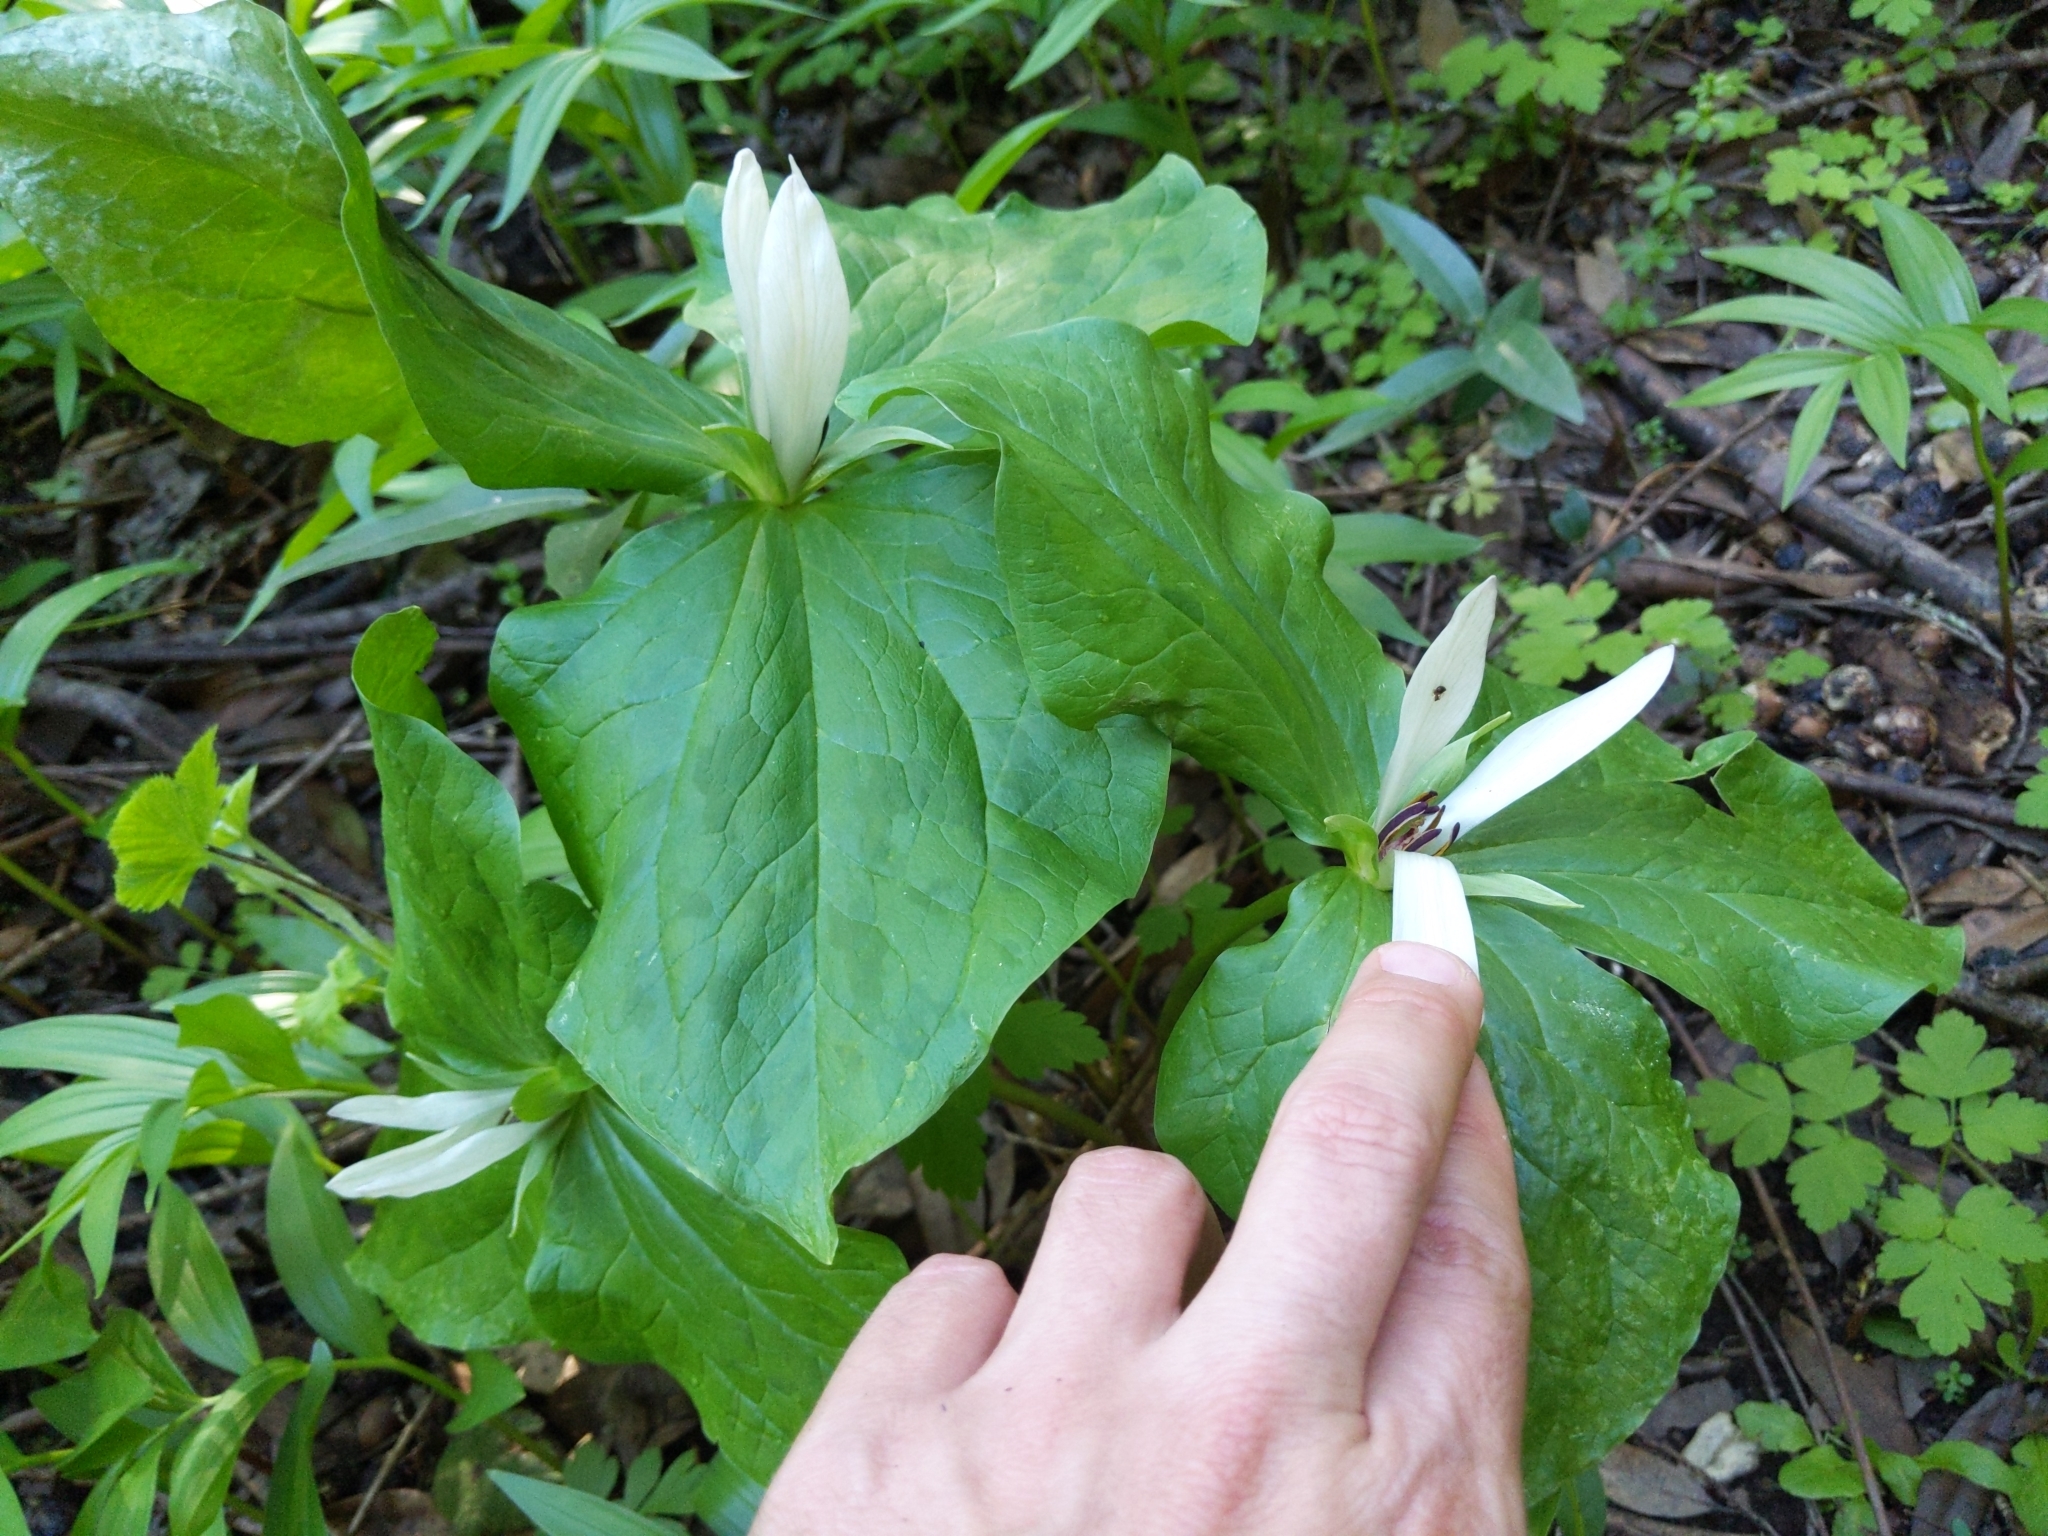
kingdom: Plantae
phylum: Tracheophyta
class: Liliopsida
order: Liliales
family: Melanthiaceae
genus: Trillium
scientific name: Trillium chloropetalum
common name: Giant trillium
